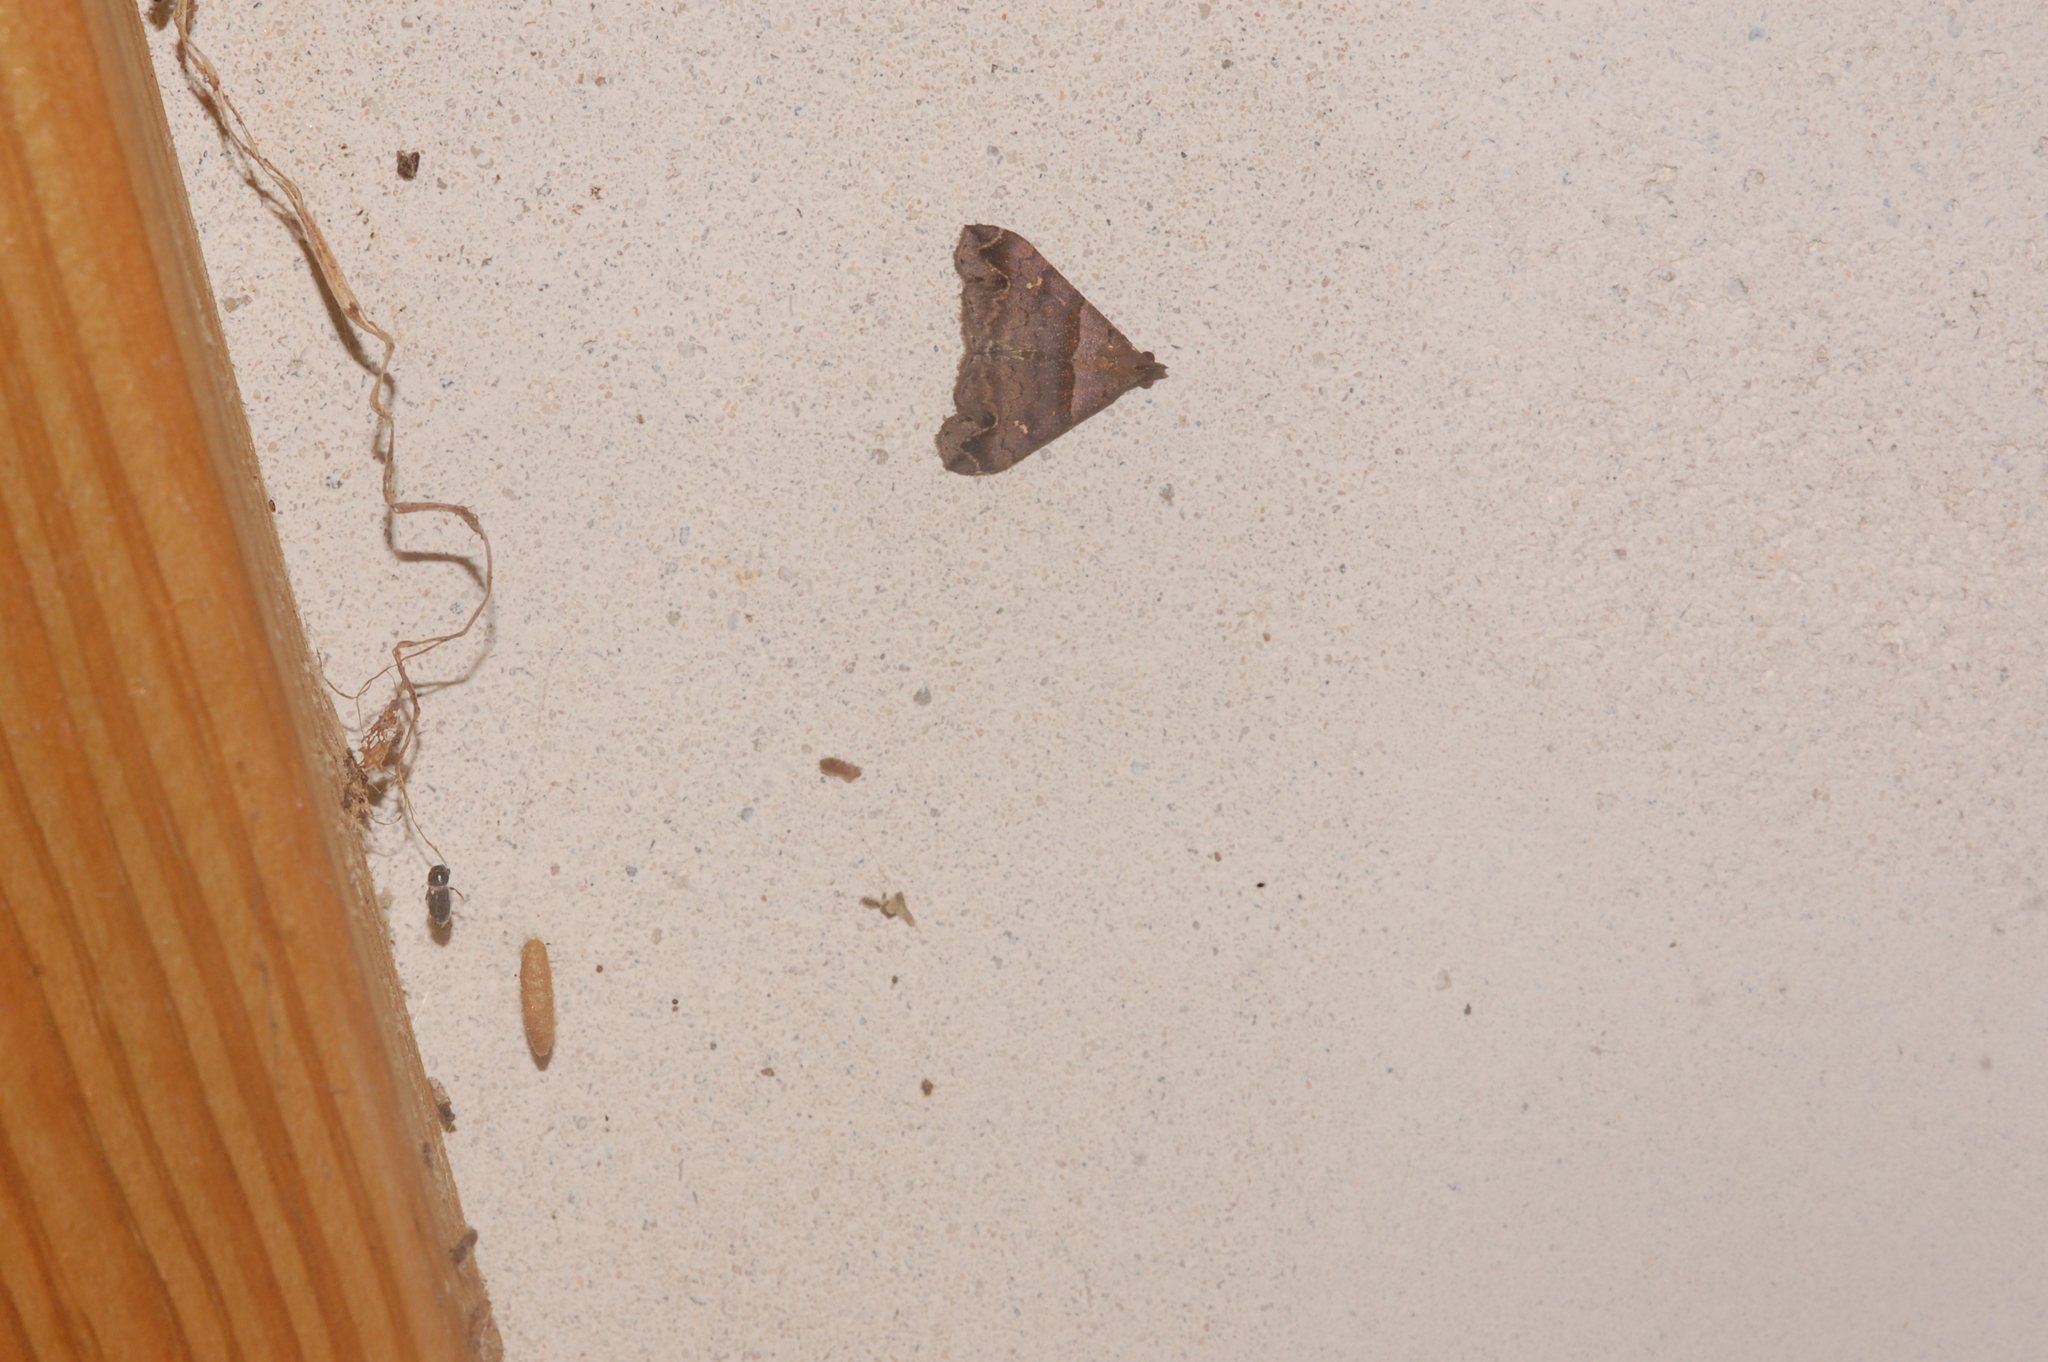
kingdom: Animalia
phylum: Arthropoda
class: Insecta
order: Lepidoptera
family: Erebidae
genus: Lascoria
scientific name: Lascoria ambigualis
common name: Ambiguous moth
